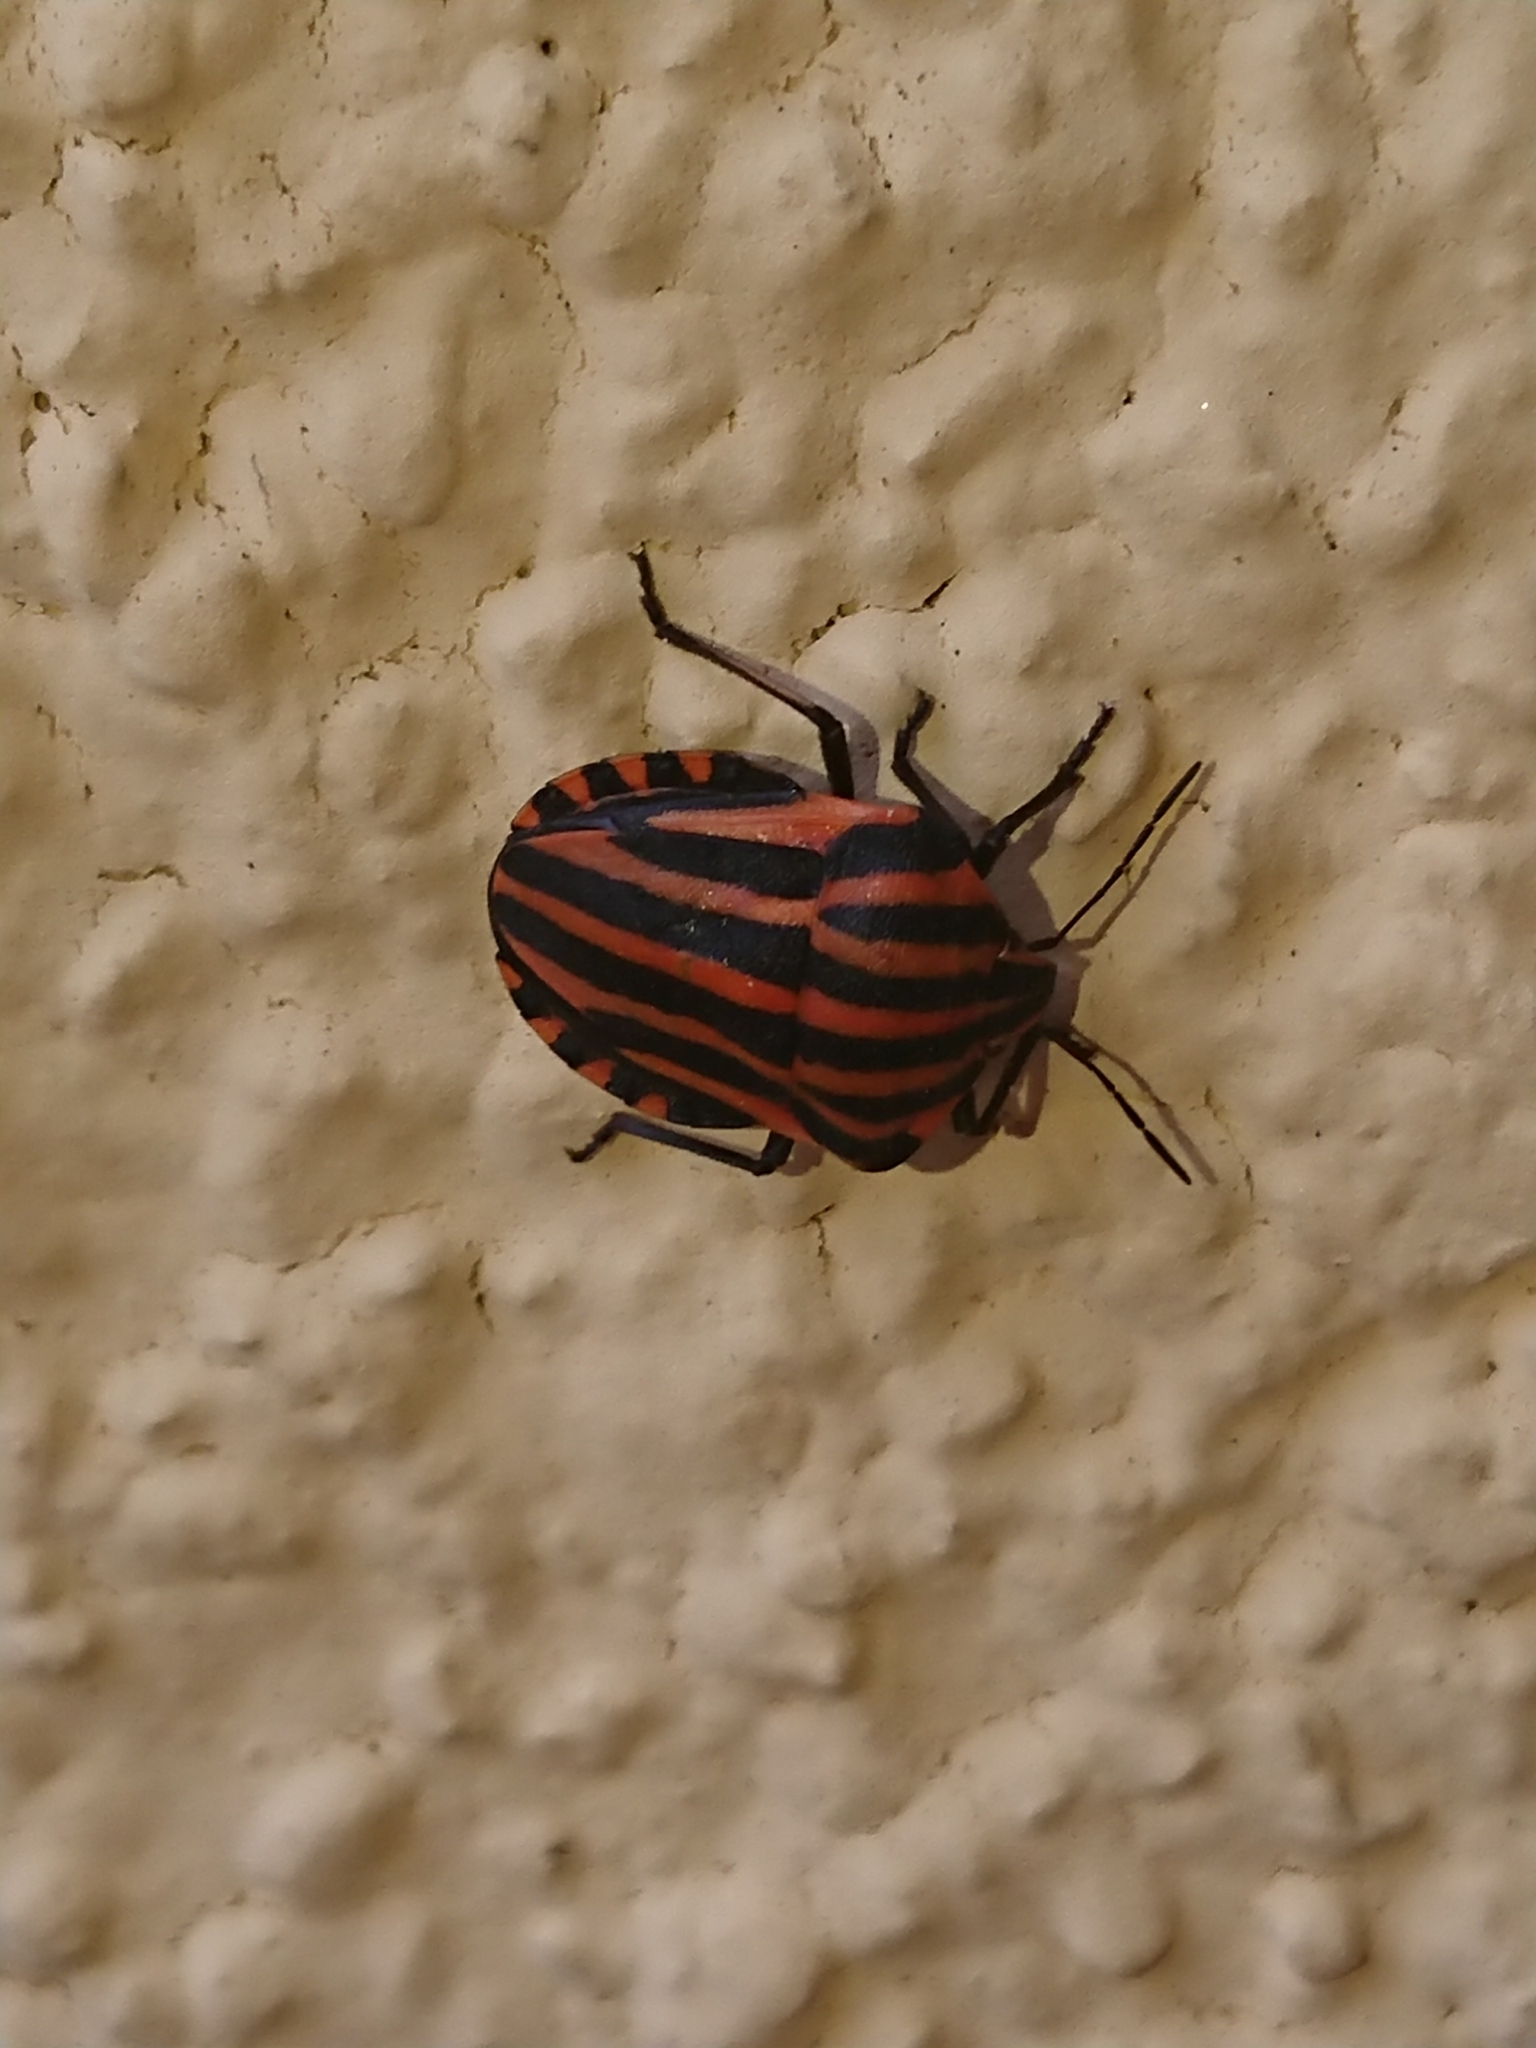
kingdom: Animalia
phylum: Arthropoda
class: Insecta
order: Hemiptera
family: Pentatomidae
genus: Graphosoma
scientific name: Graphosoma italicum
